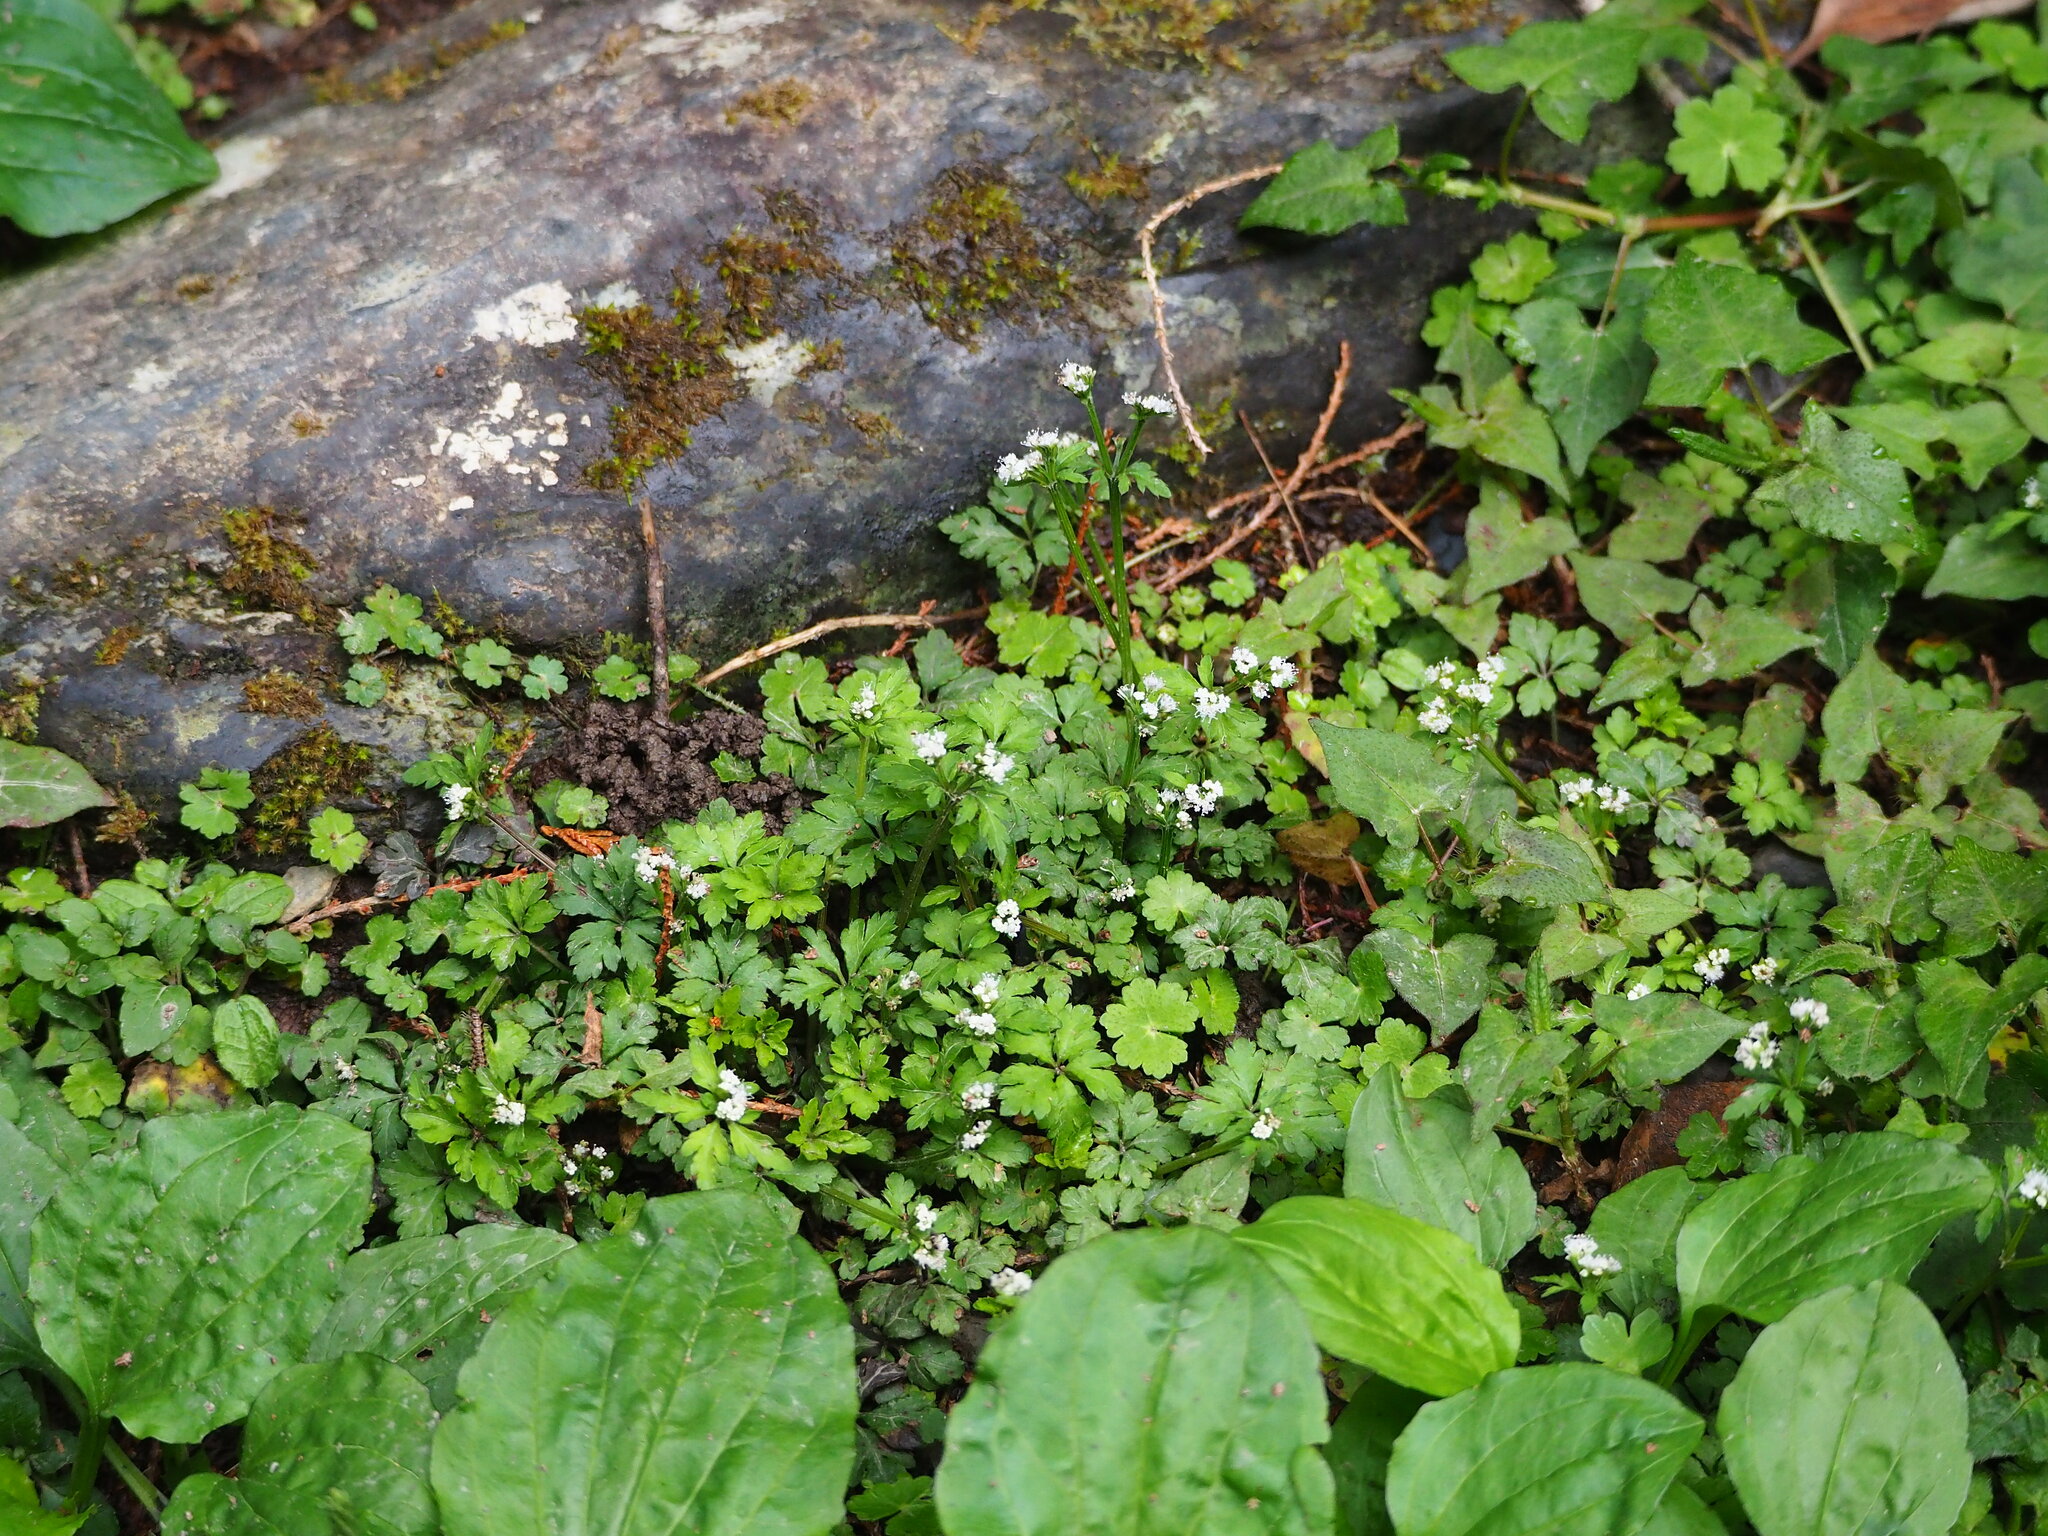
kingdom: Plantae
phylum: Tracheophyta
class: Magnoliopsida
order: Apiales
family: Apiaceae
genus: Sanicula
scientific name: Sanicula petagnioides
